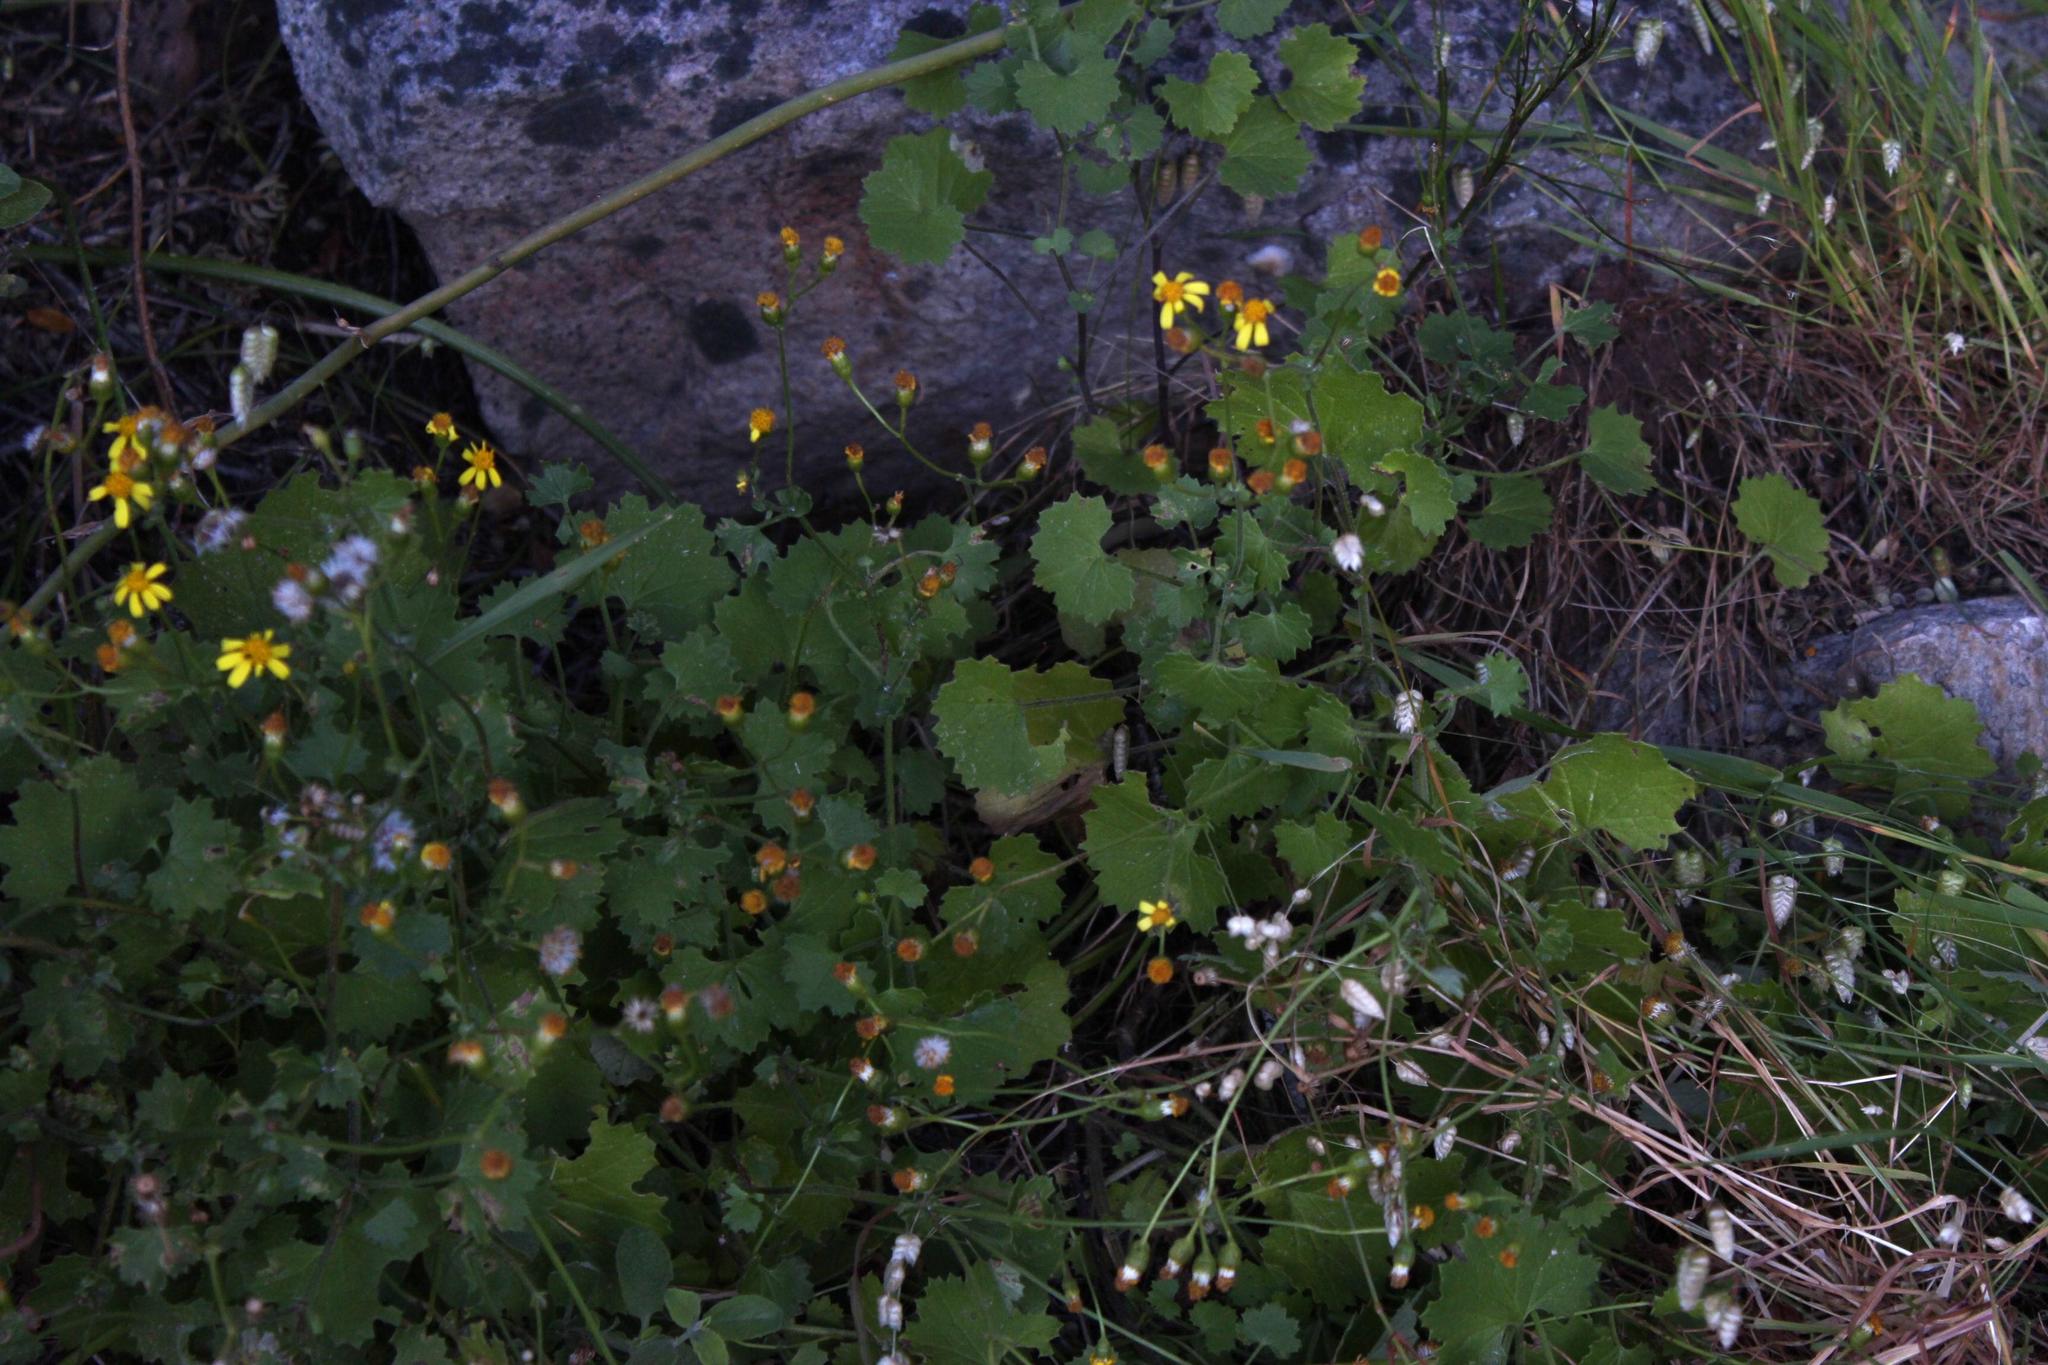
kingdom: Plantae
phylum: Tracheophyta
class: Magnoliopsida
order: Asterales
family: Asteraceae
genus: Cineraria
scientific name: Cineraria geifolia
